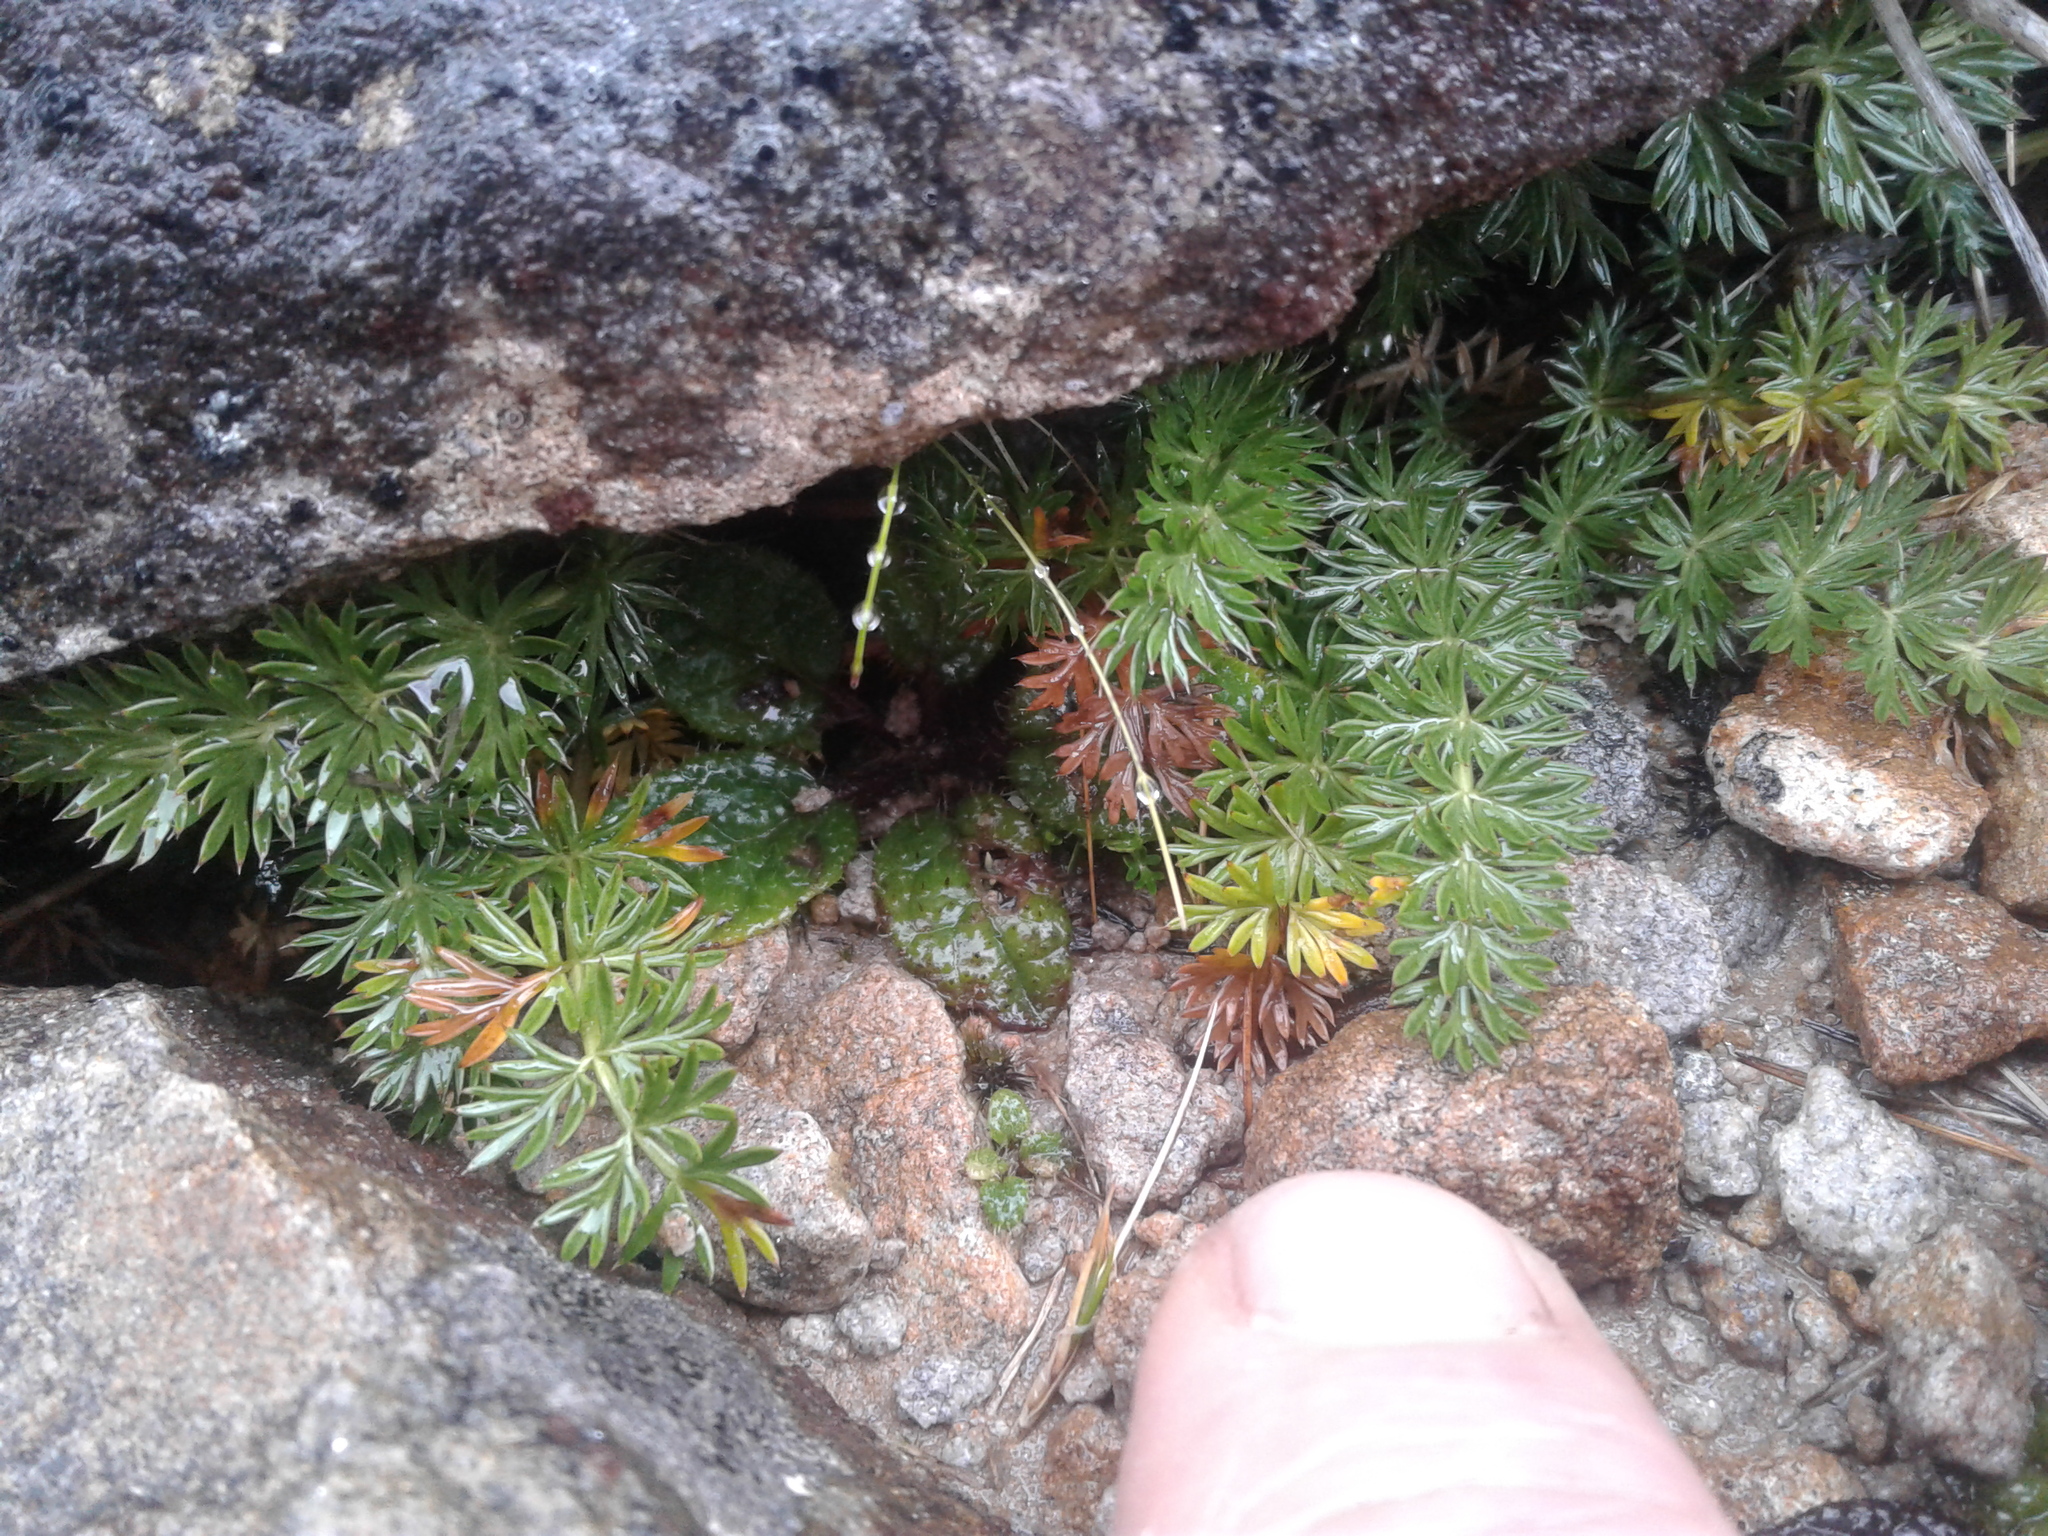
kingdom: Plantae
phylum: Tracheophyta
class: Magnoliopsida
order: Apiales
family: Apiaceae
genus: Anisotome
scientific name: Anisotome haastii
